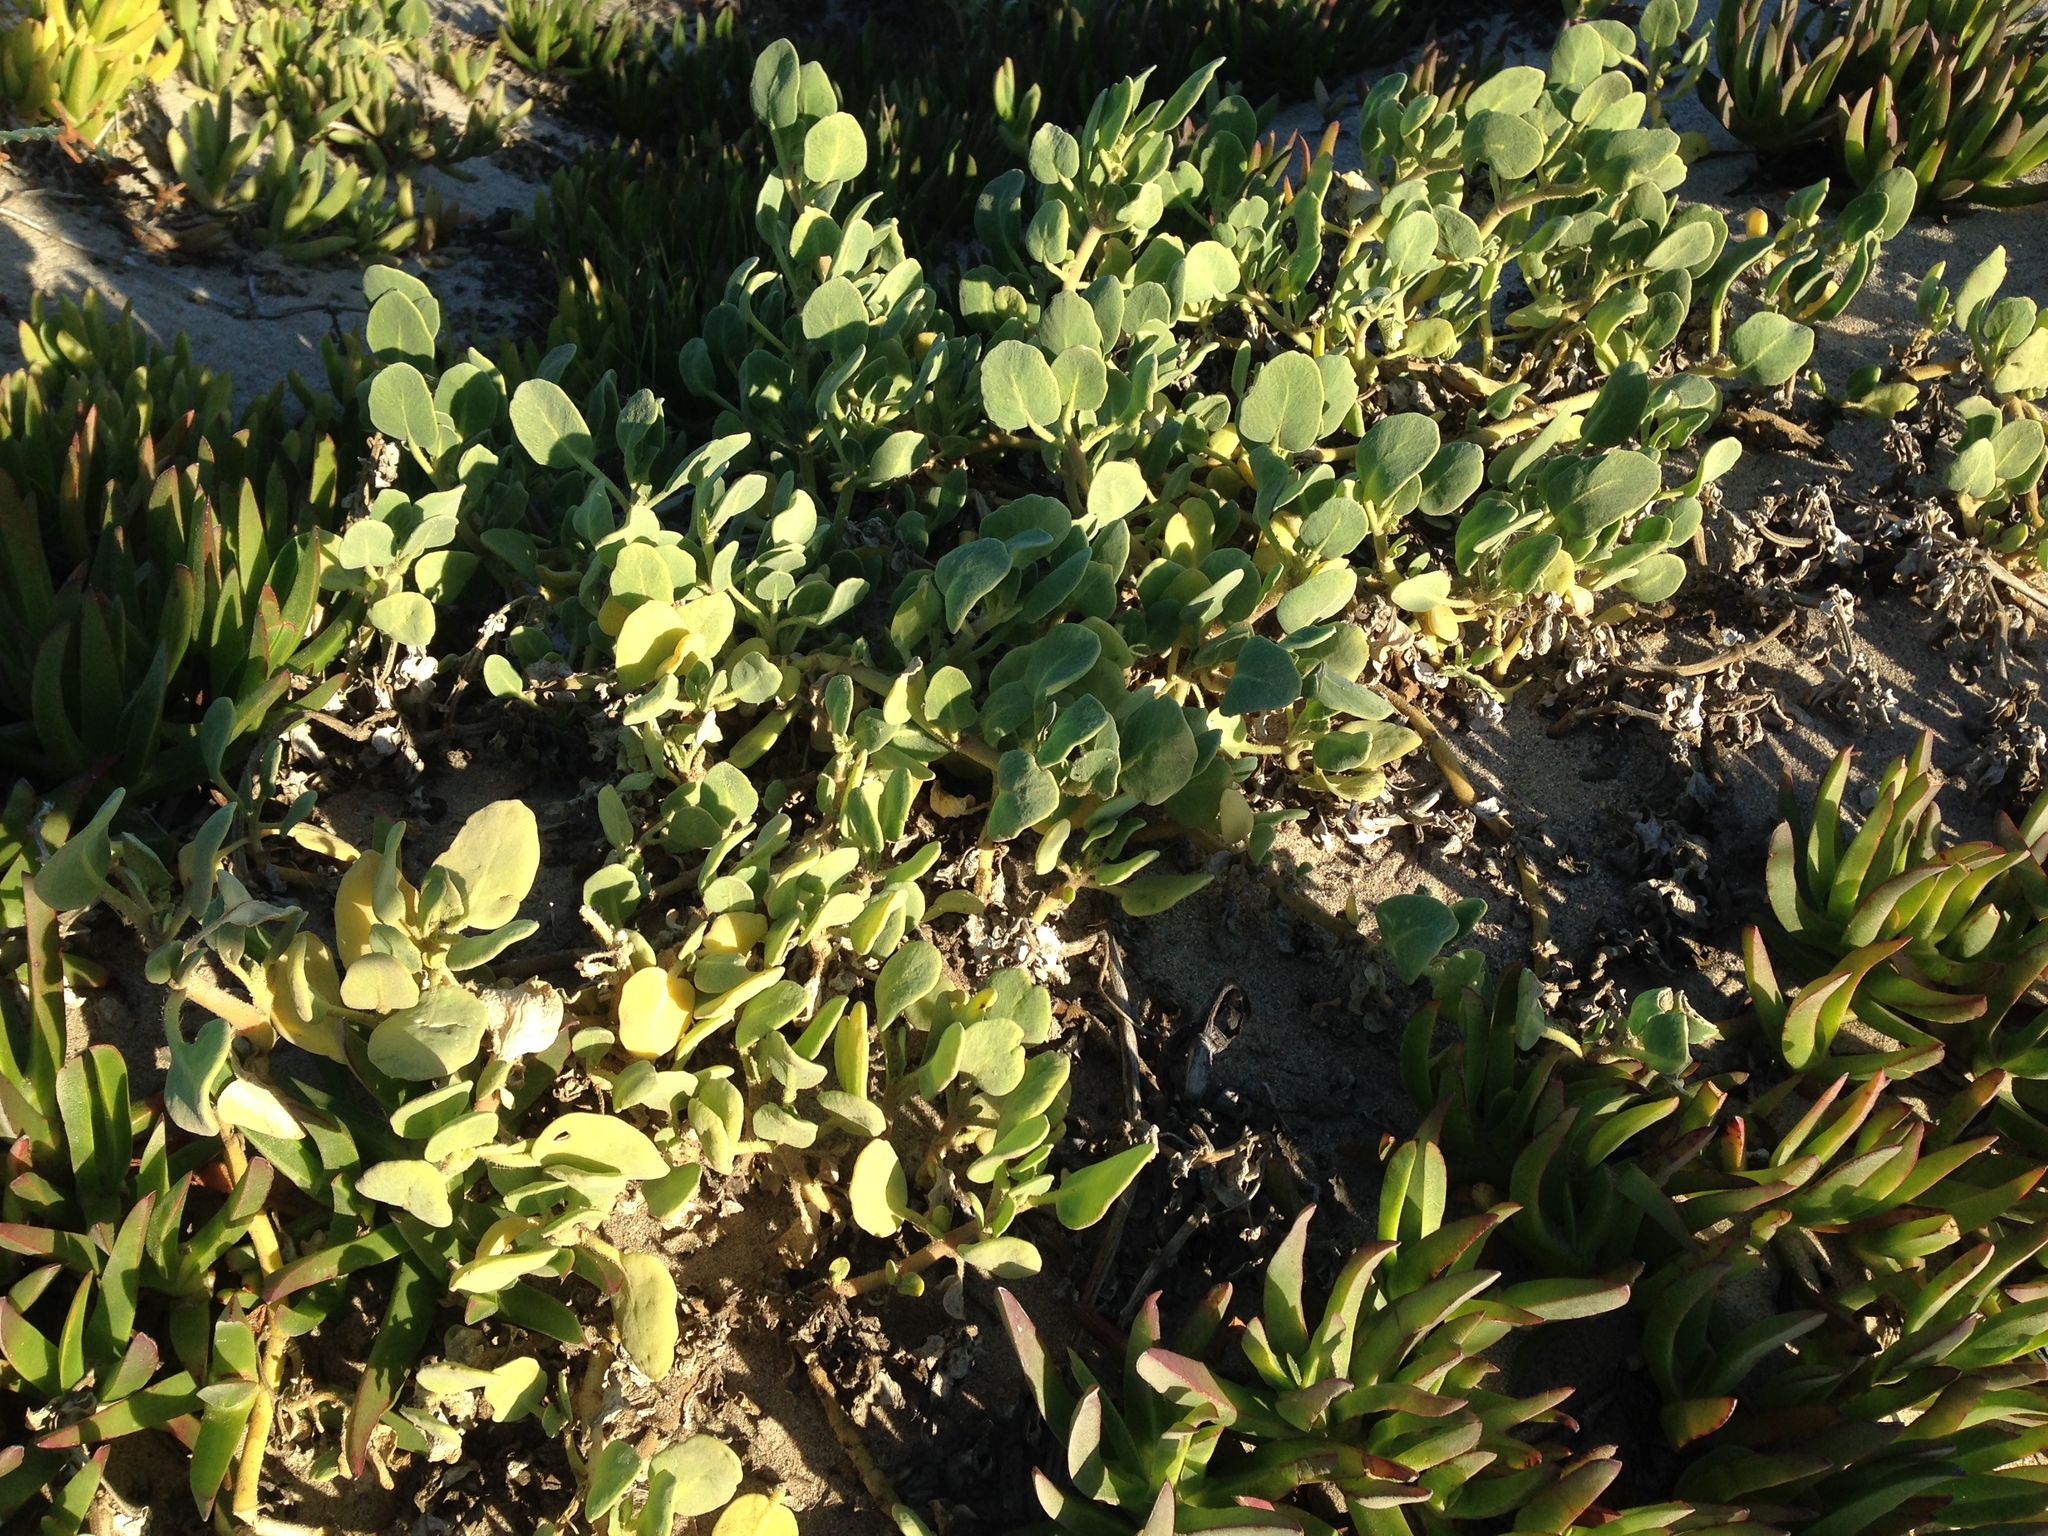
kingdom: Plantae
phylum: Tracheophyta
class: Magnoliopsida
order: Caryophyllales
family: Nyctaginaceae
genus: Abronia
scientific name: Abronia maritima
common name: Red sand-verbena
